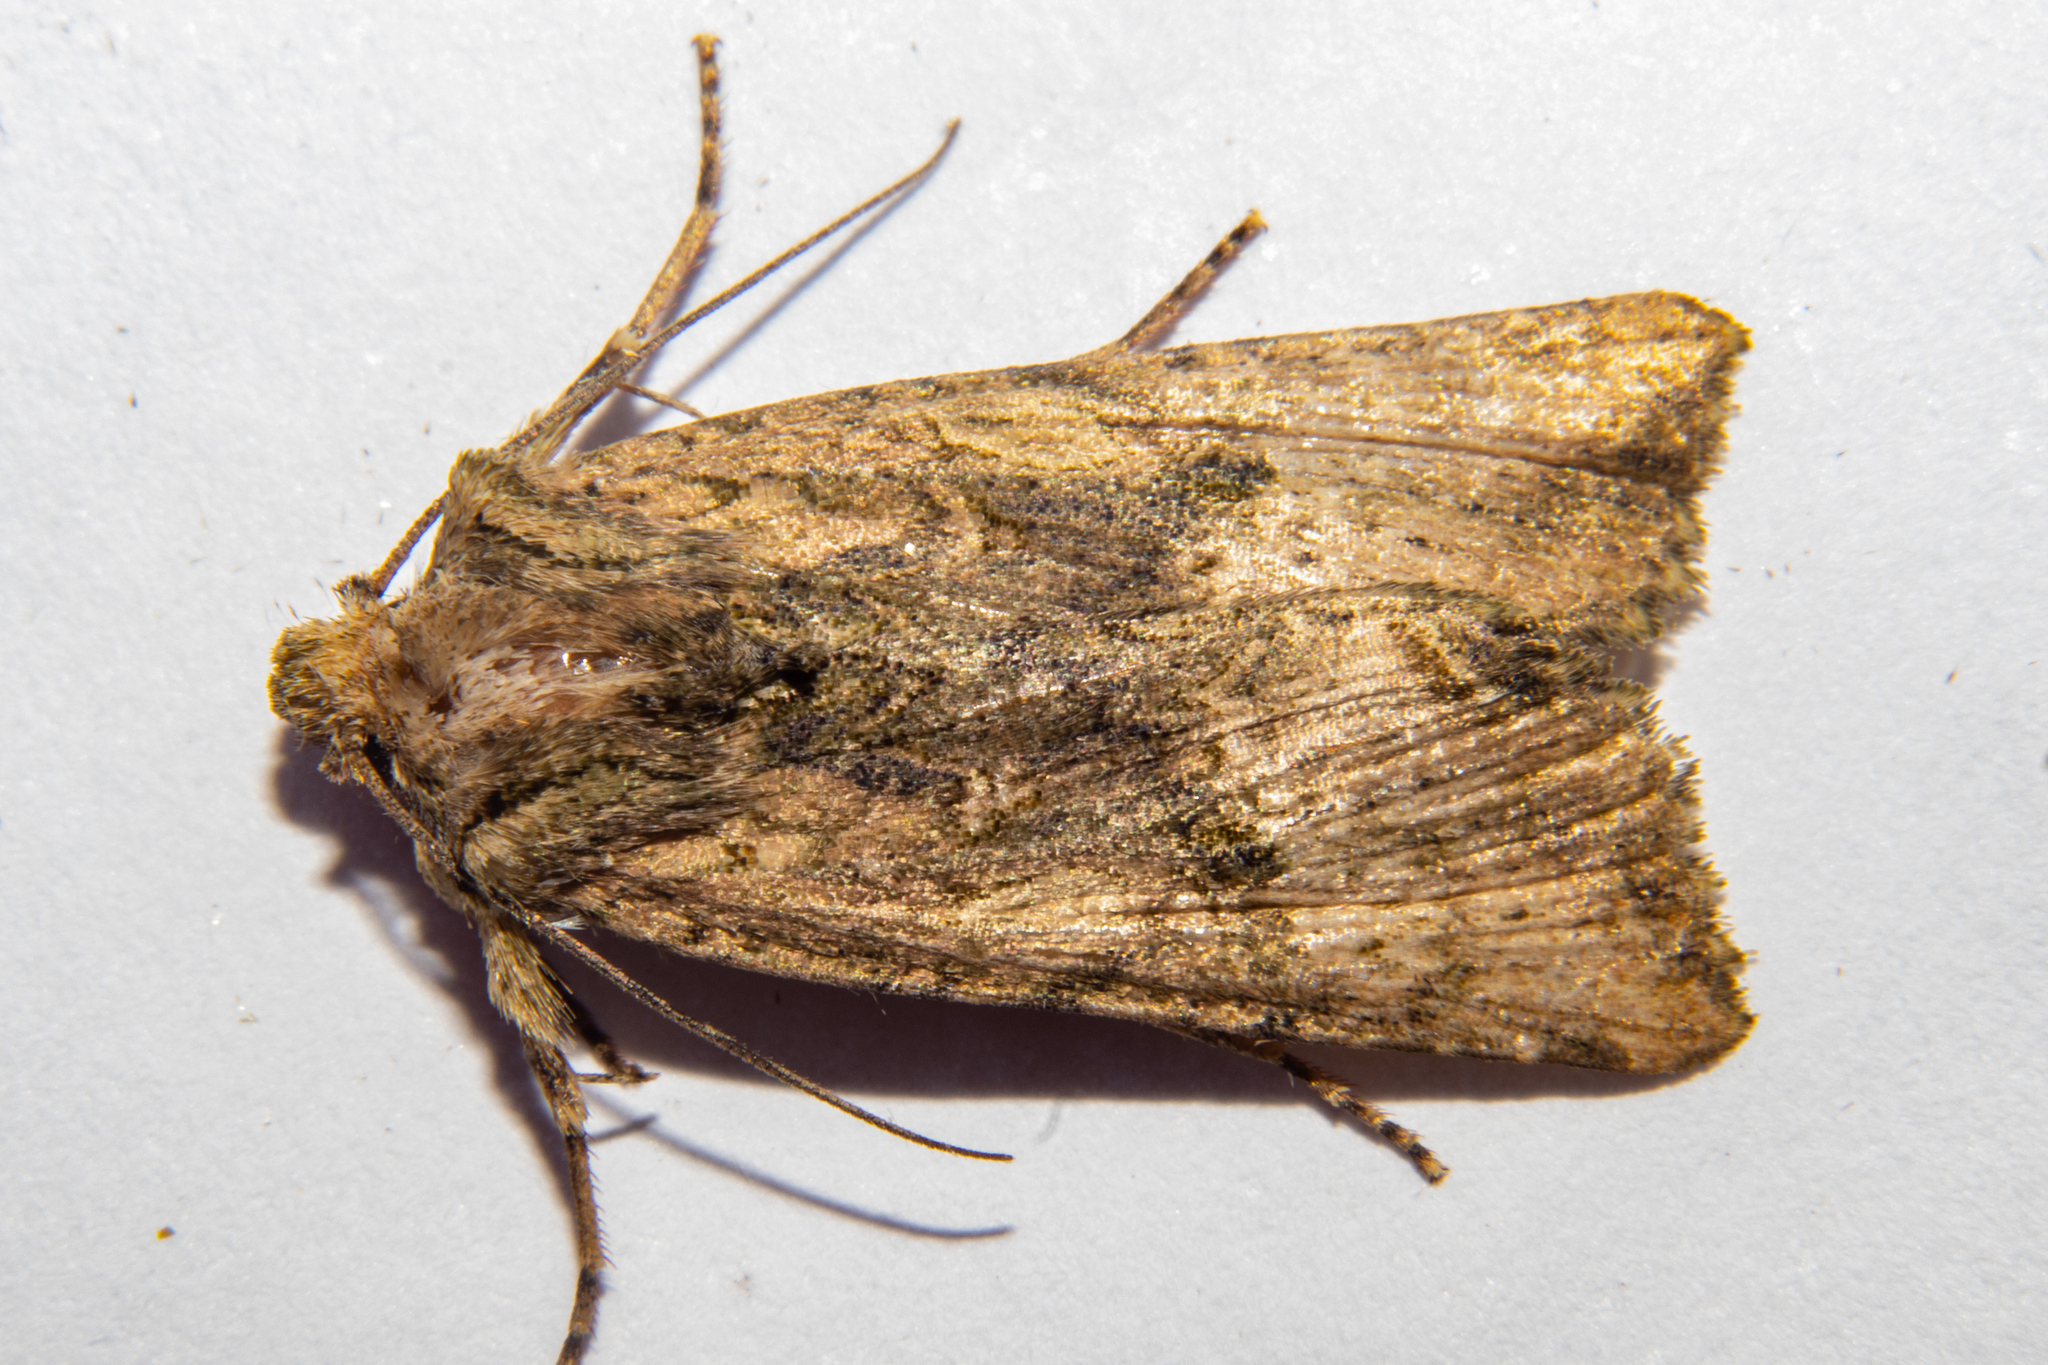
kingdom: Animalia
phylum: Arthropoda
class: Insecta
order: Lepidoptera
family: Noctuidae
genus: Meterana
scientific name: Meterana coeleno
